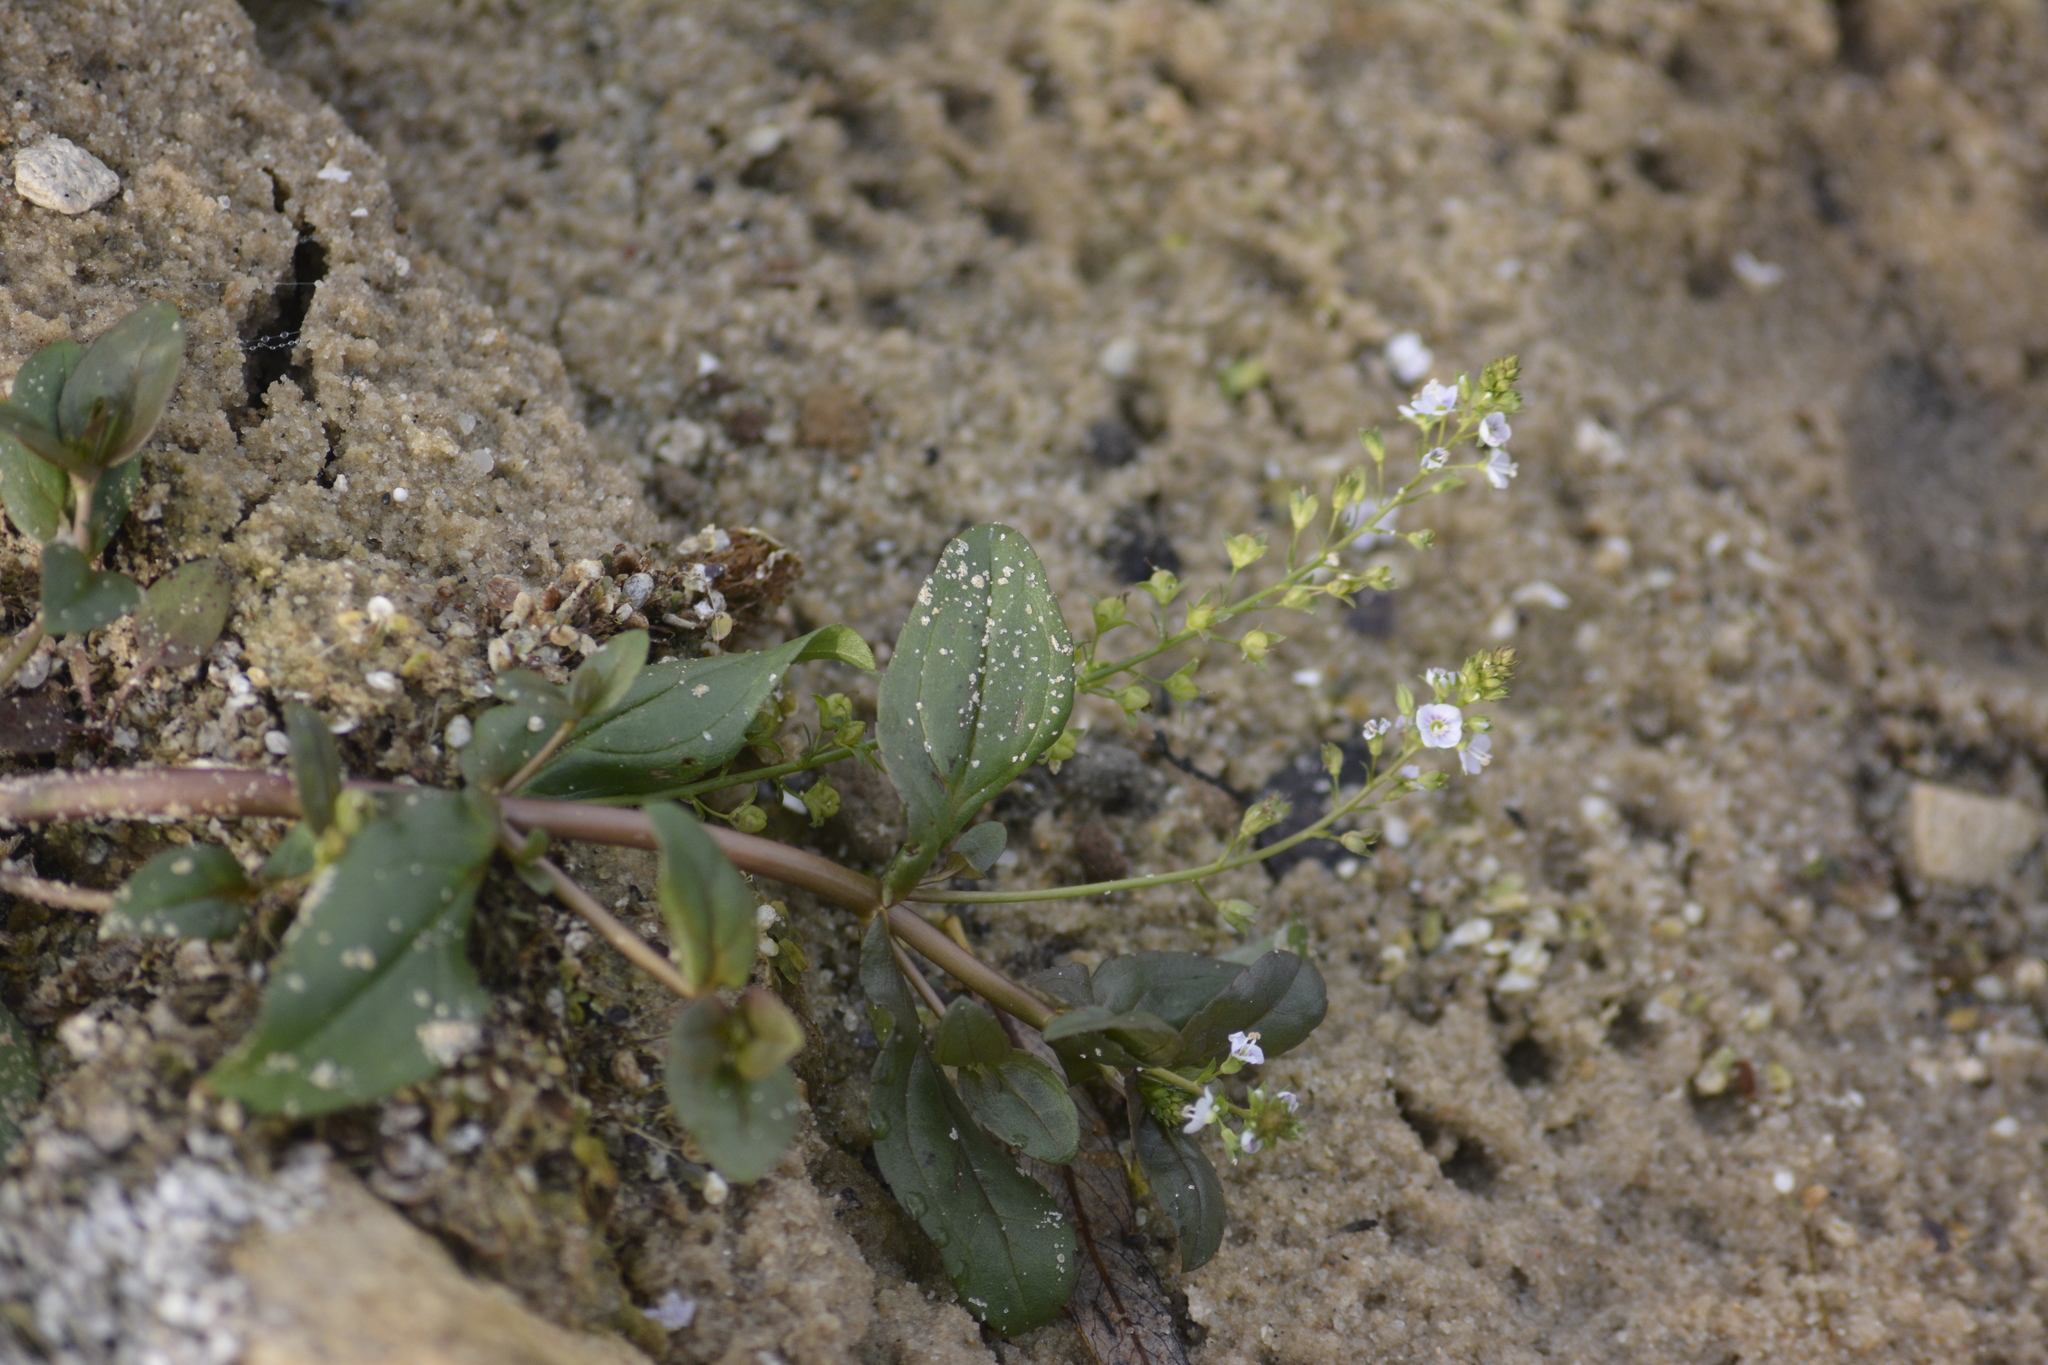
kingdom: Plantae
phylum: Tracheophyta
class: Magnoliopsida
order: Lamiales
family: Plantaginaceae
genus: Veronica
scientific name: Veronica anagallis-aquatica
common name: Water speedwell
